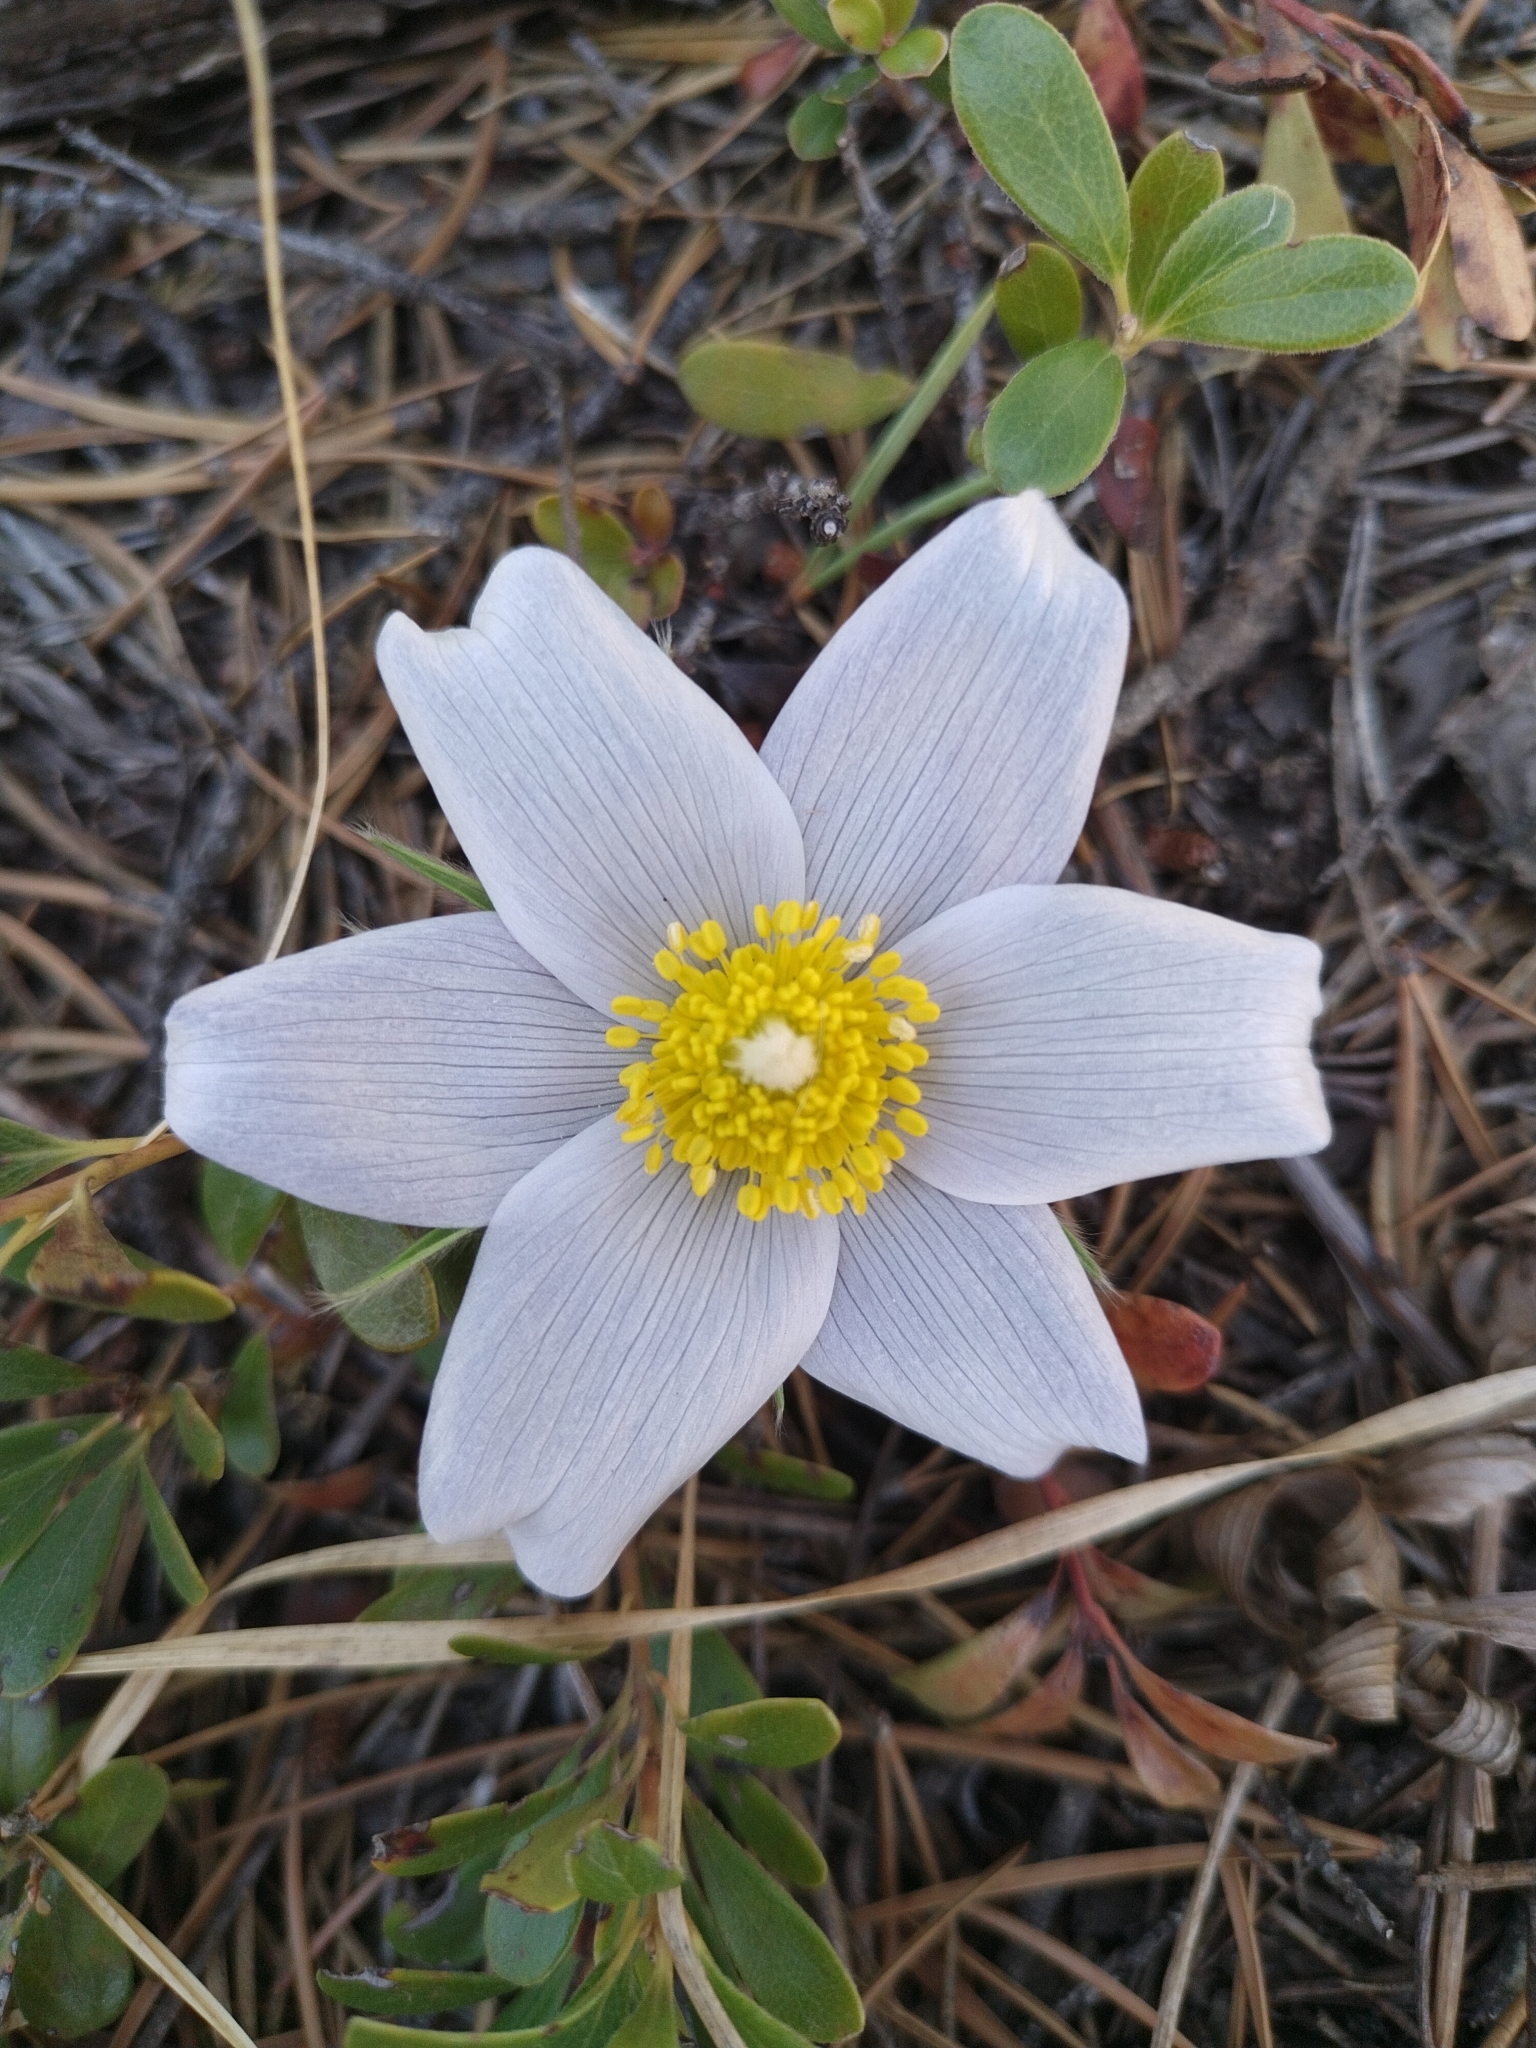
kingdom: Plantae
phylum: Tracheophyta
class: Magnoliopsida
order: Ranunculales
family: Ranunculaceae
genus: Pulsatilla
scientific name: Pulsatilla nuttalliana
